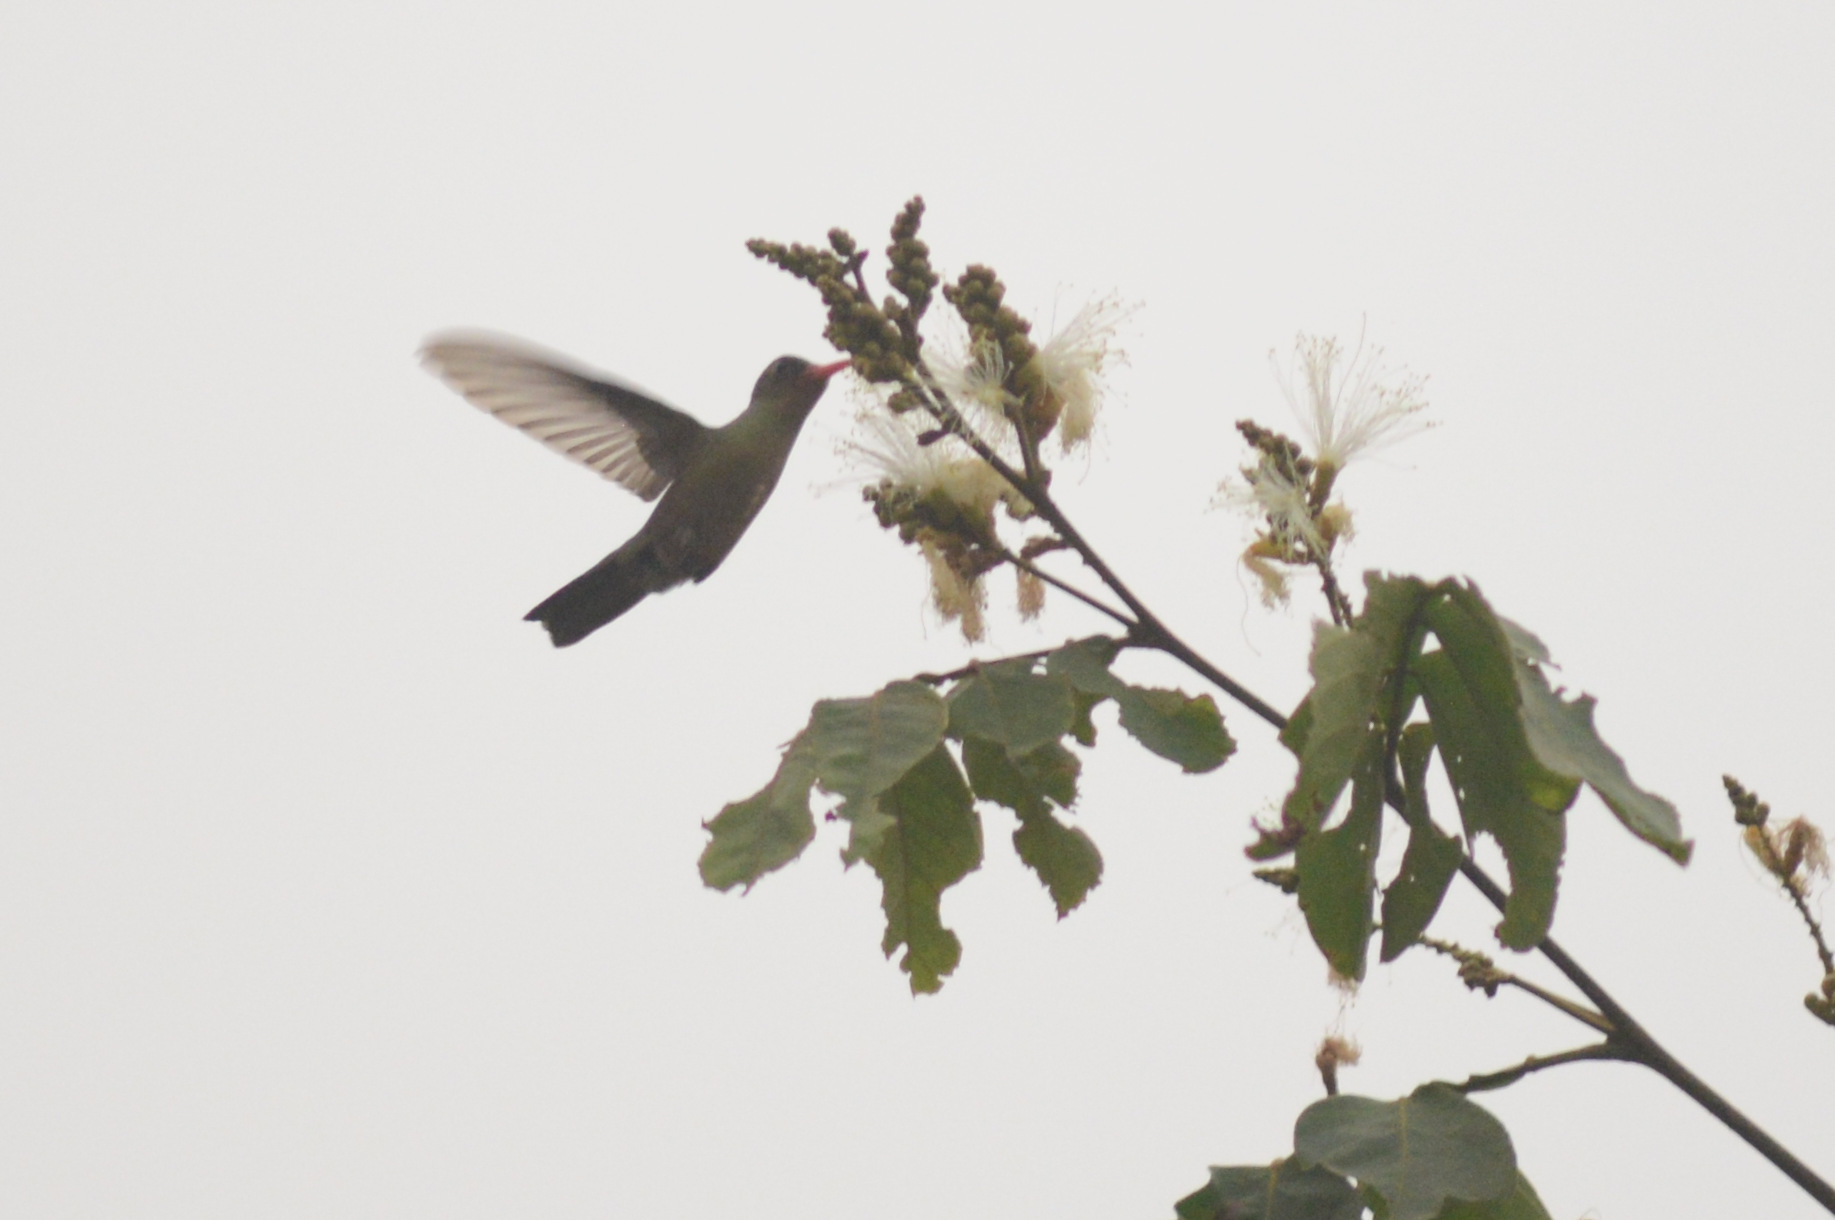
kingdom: Animalia
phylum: Chordata
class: Aves
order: Apodiformes
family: Trochilidae
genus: Hylocharis
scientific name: Hylocharis chrysura
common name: Gilded sapphire
